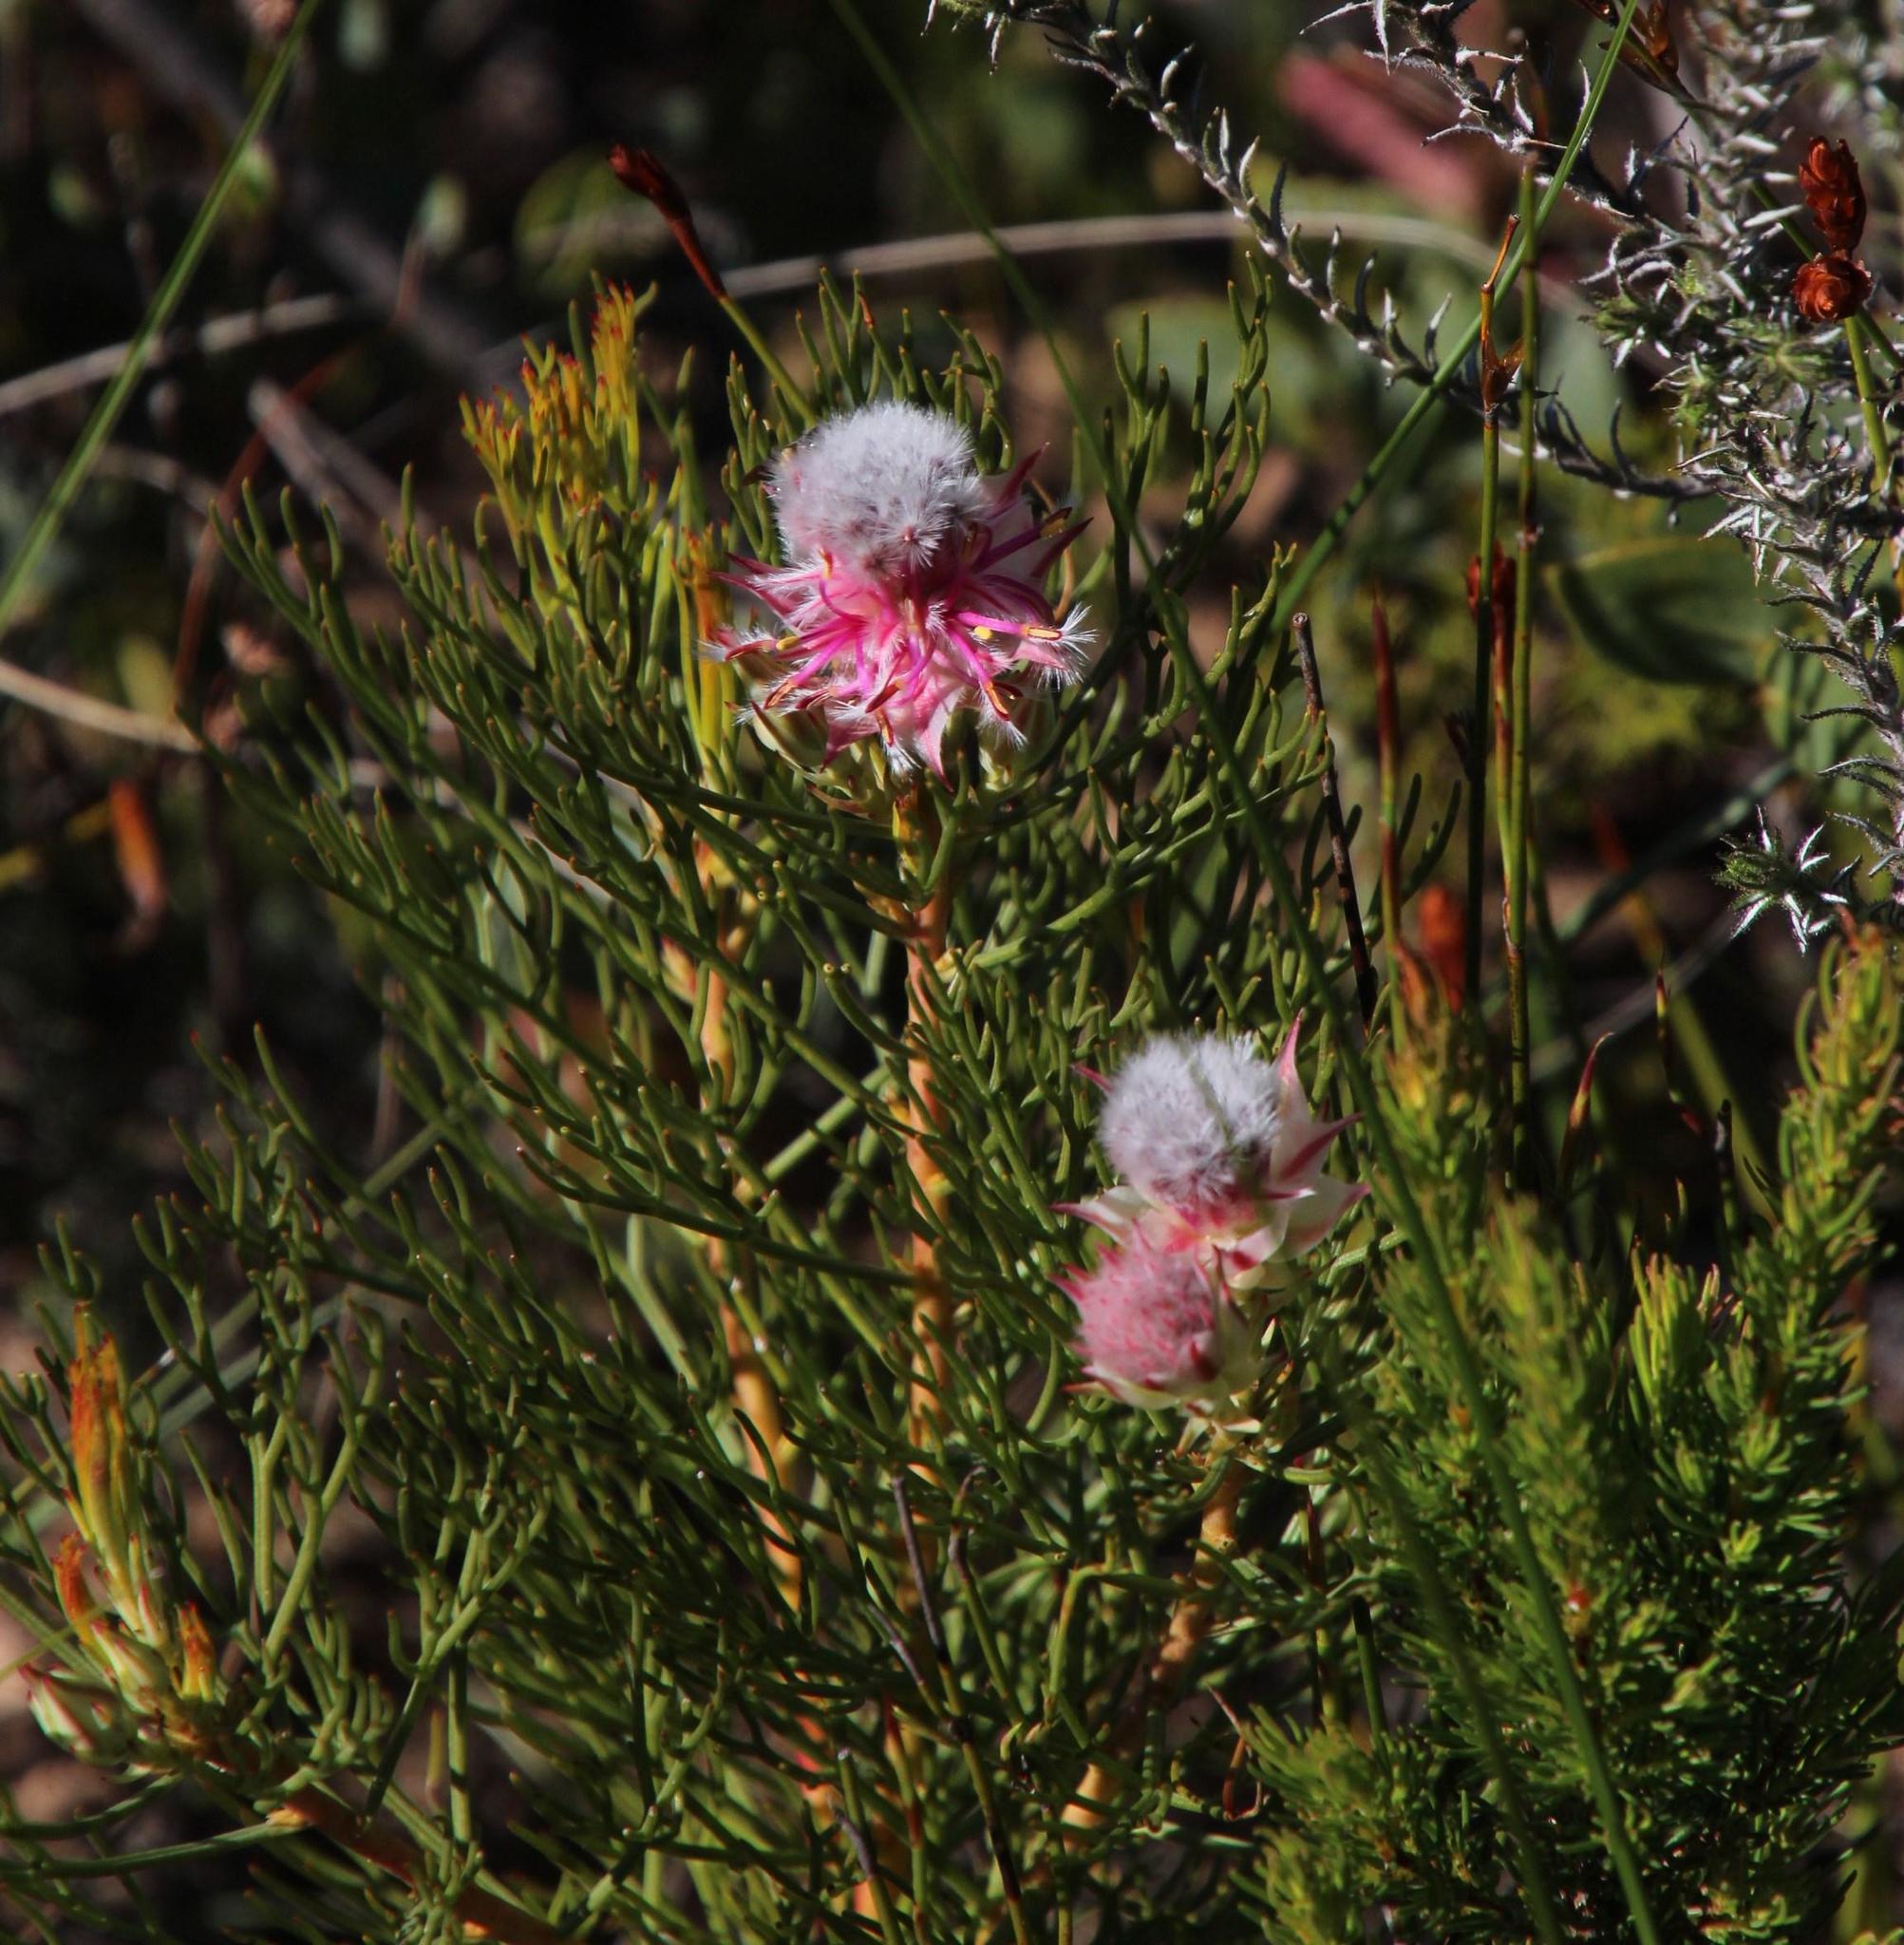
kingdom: Plantae
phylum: Tracheophyta
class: Magnoliopsida
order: Proteales
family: Proteaceae
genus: Serruria
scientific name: Serruria rosea
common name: Rose spiderhead
